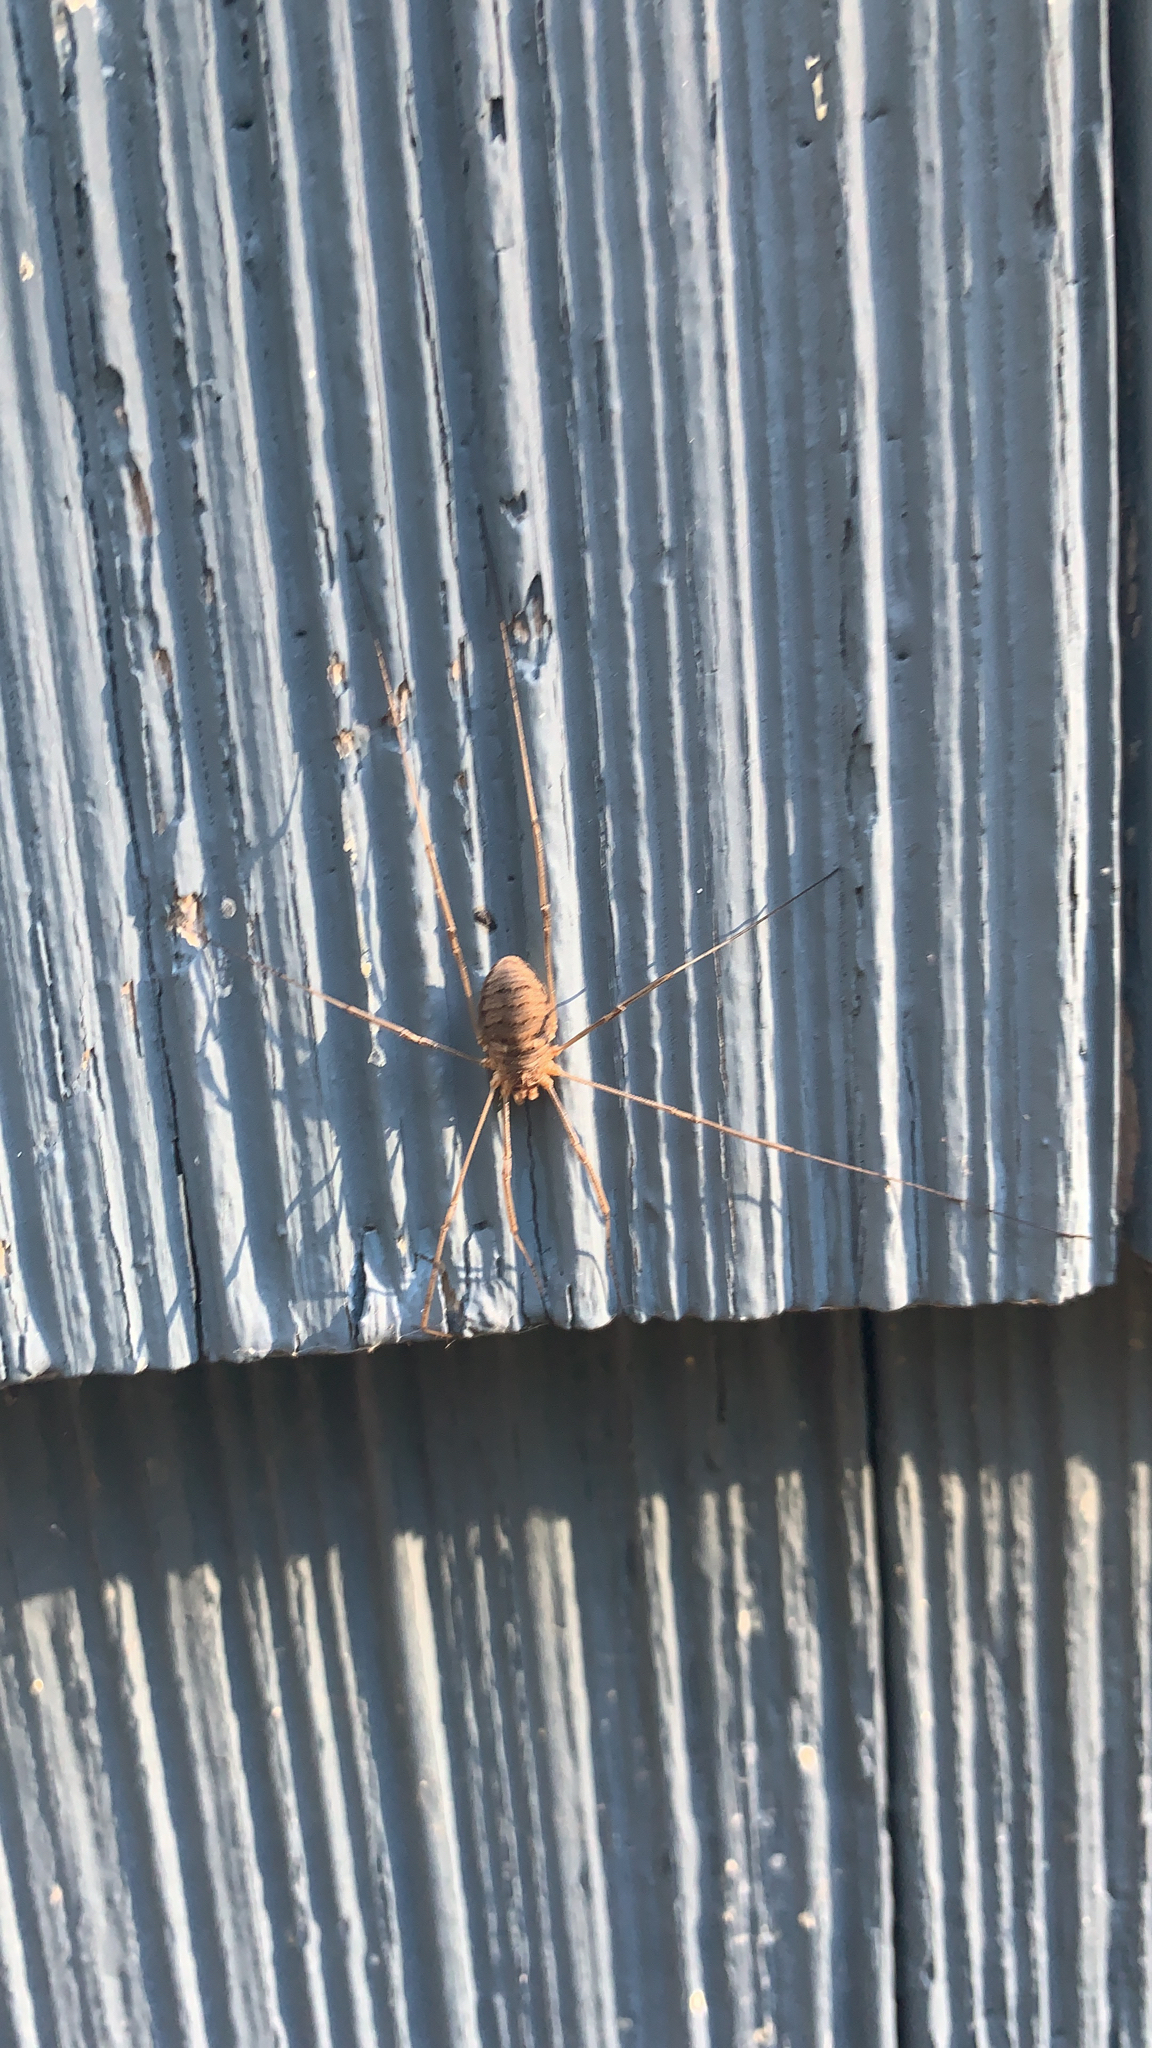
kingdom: Animalia
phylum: Arthropoda
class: Arachnida
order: Opiliones
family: Phalangiidae
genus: Phalangium
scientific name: Phalangium opilio
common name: Daddy longleg
